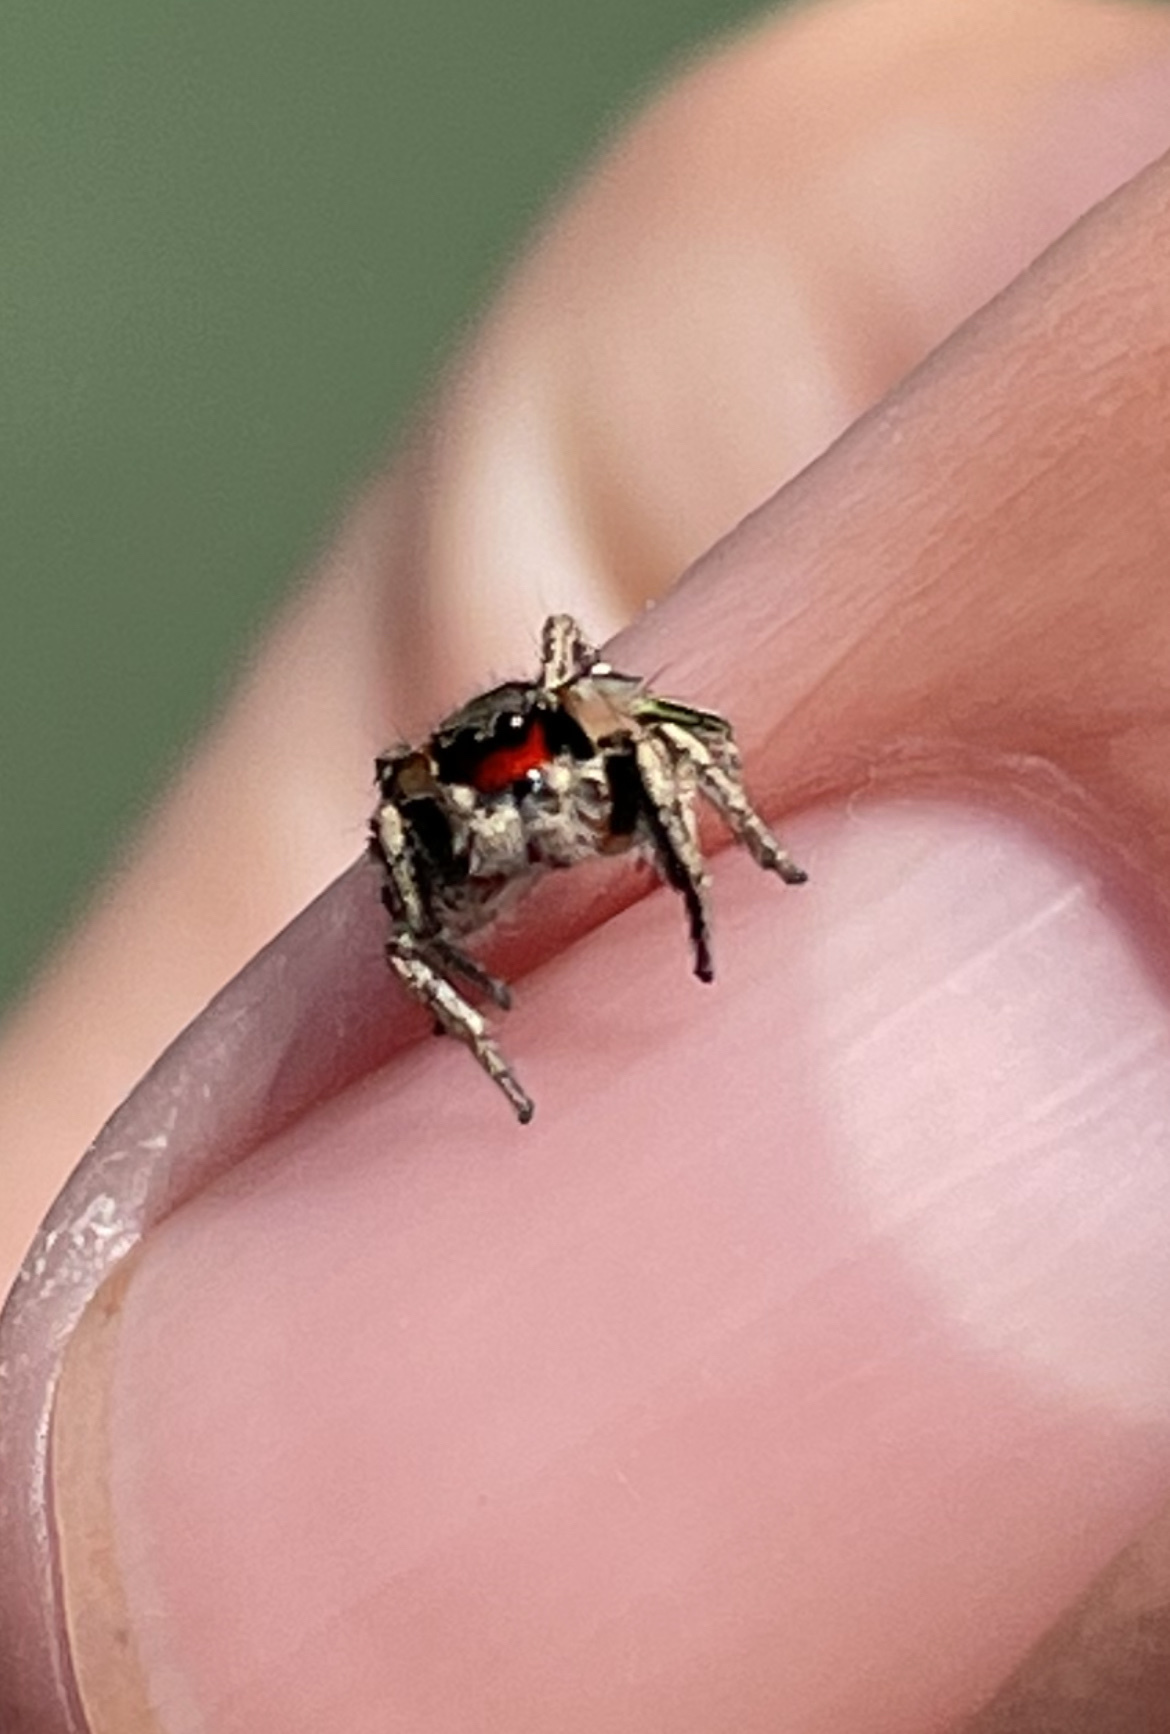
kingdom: Animalia
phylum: Arthropoda
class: Arachnida
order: Araneae
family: Salticidae
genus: Habronattus
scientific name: Habronattus coecatus
